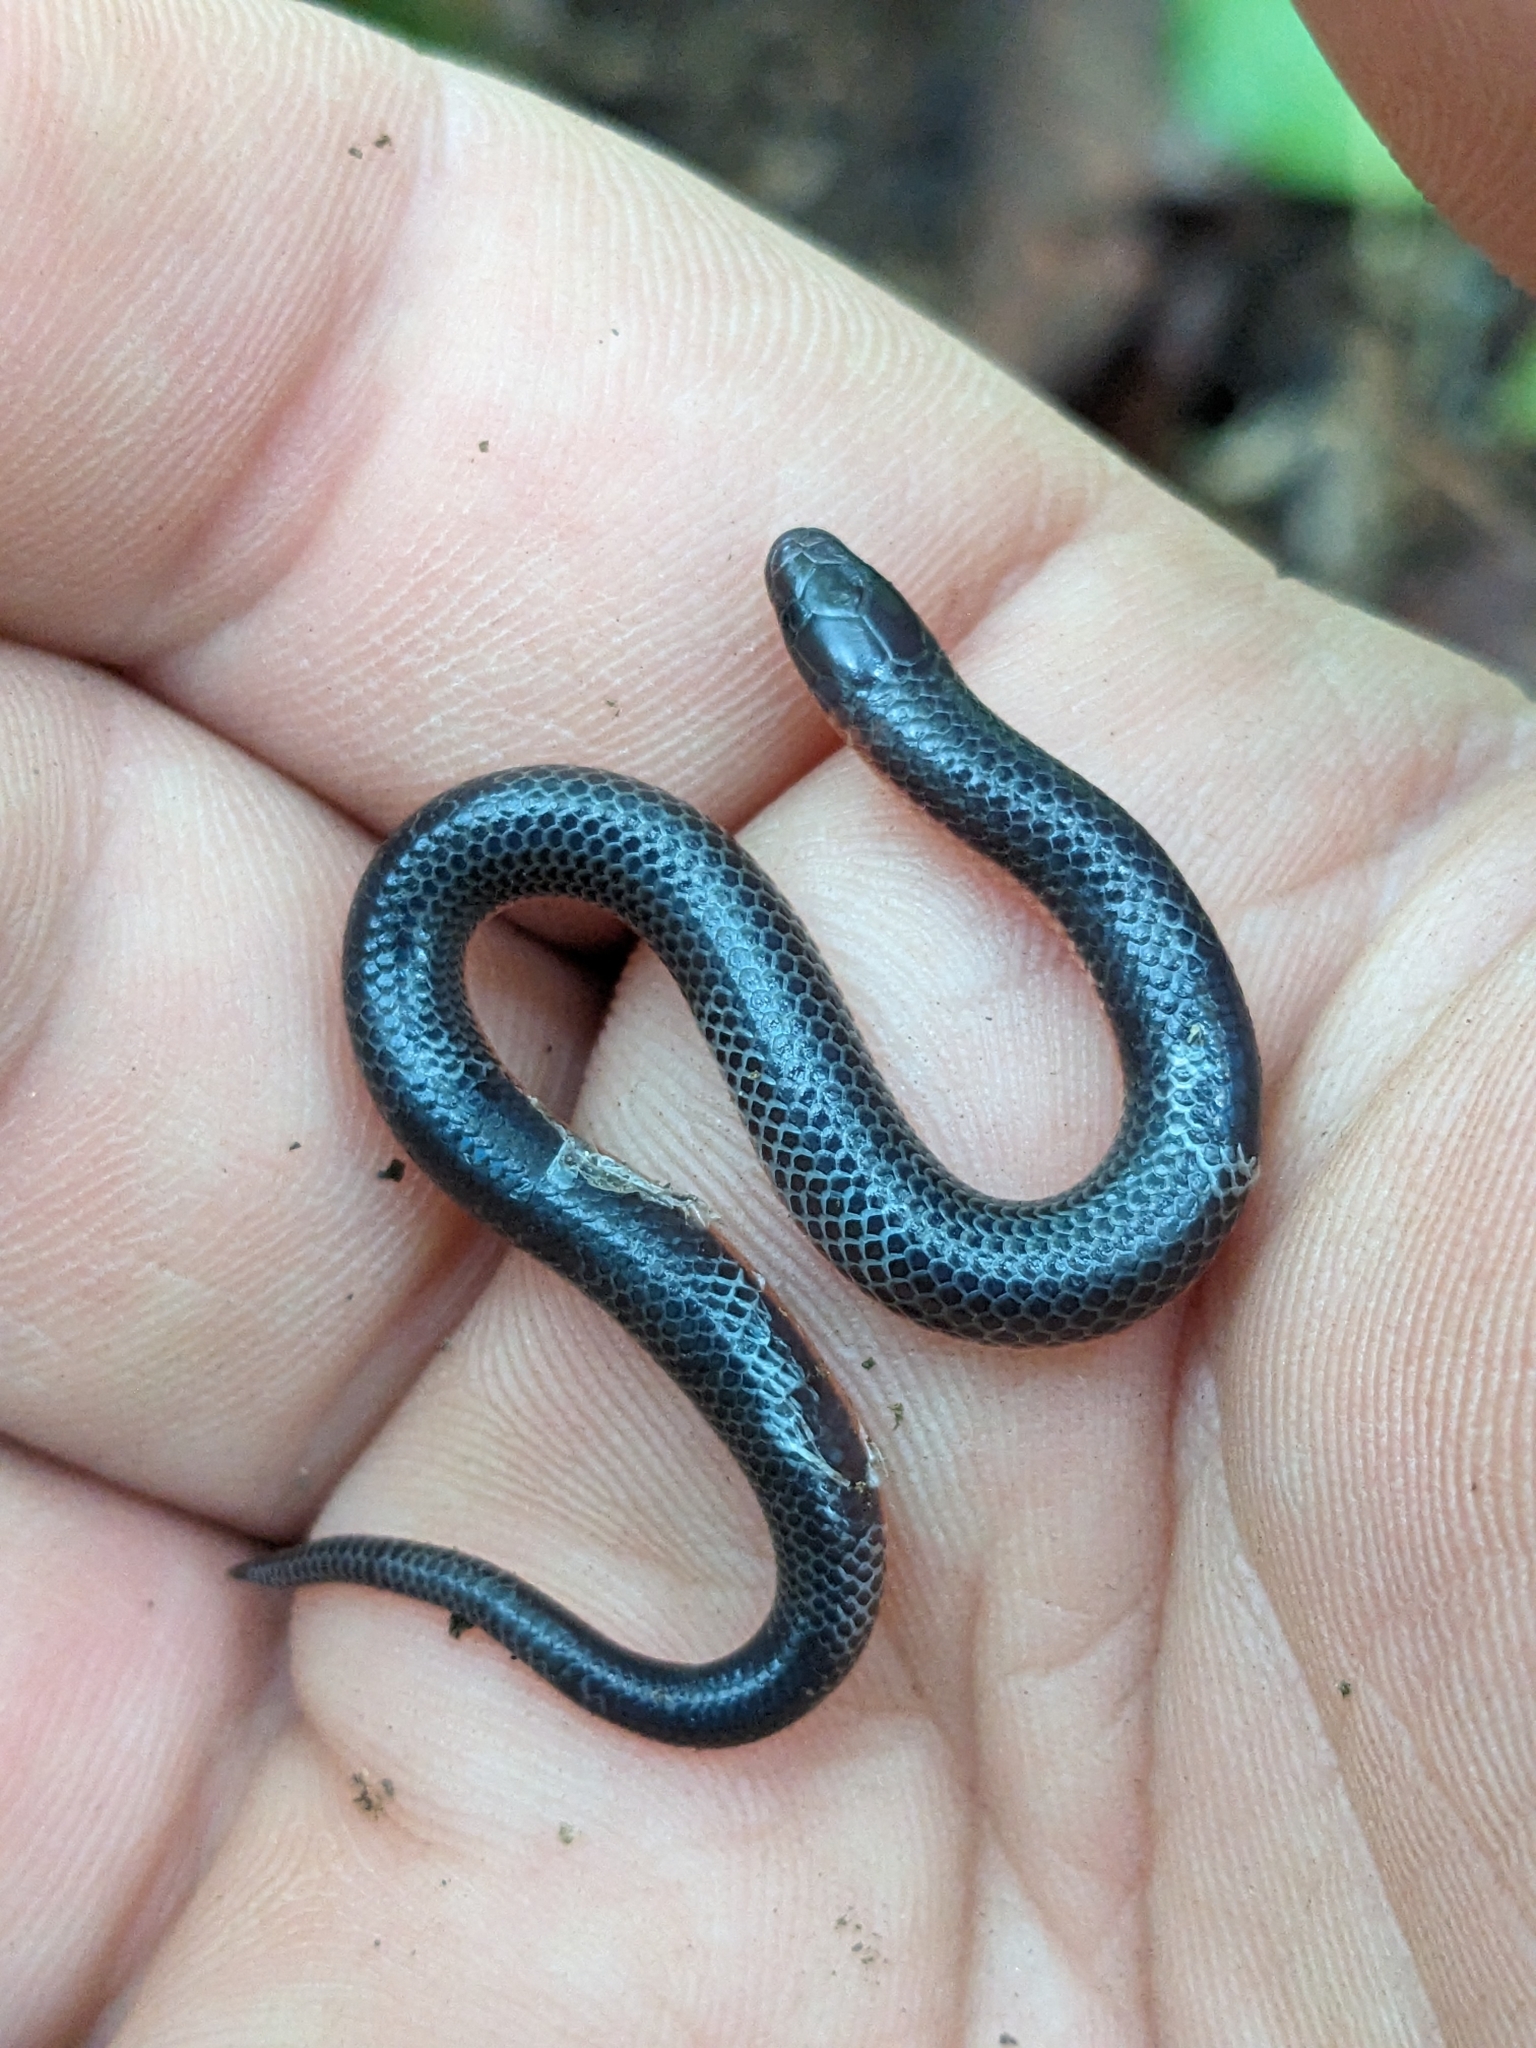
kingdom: Animalia
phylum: Chordata
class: Squamata
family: Colubridae
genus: Carphophis
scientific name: Carphophis amoenus
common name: Eastern worm snake
